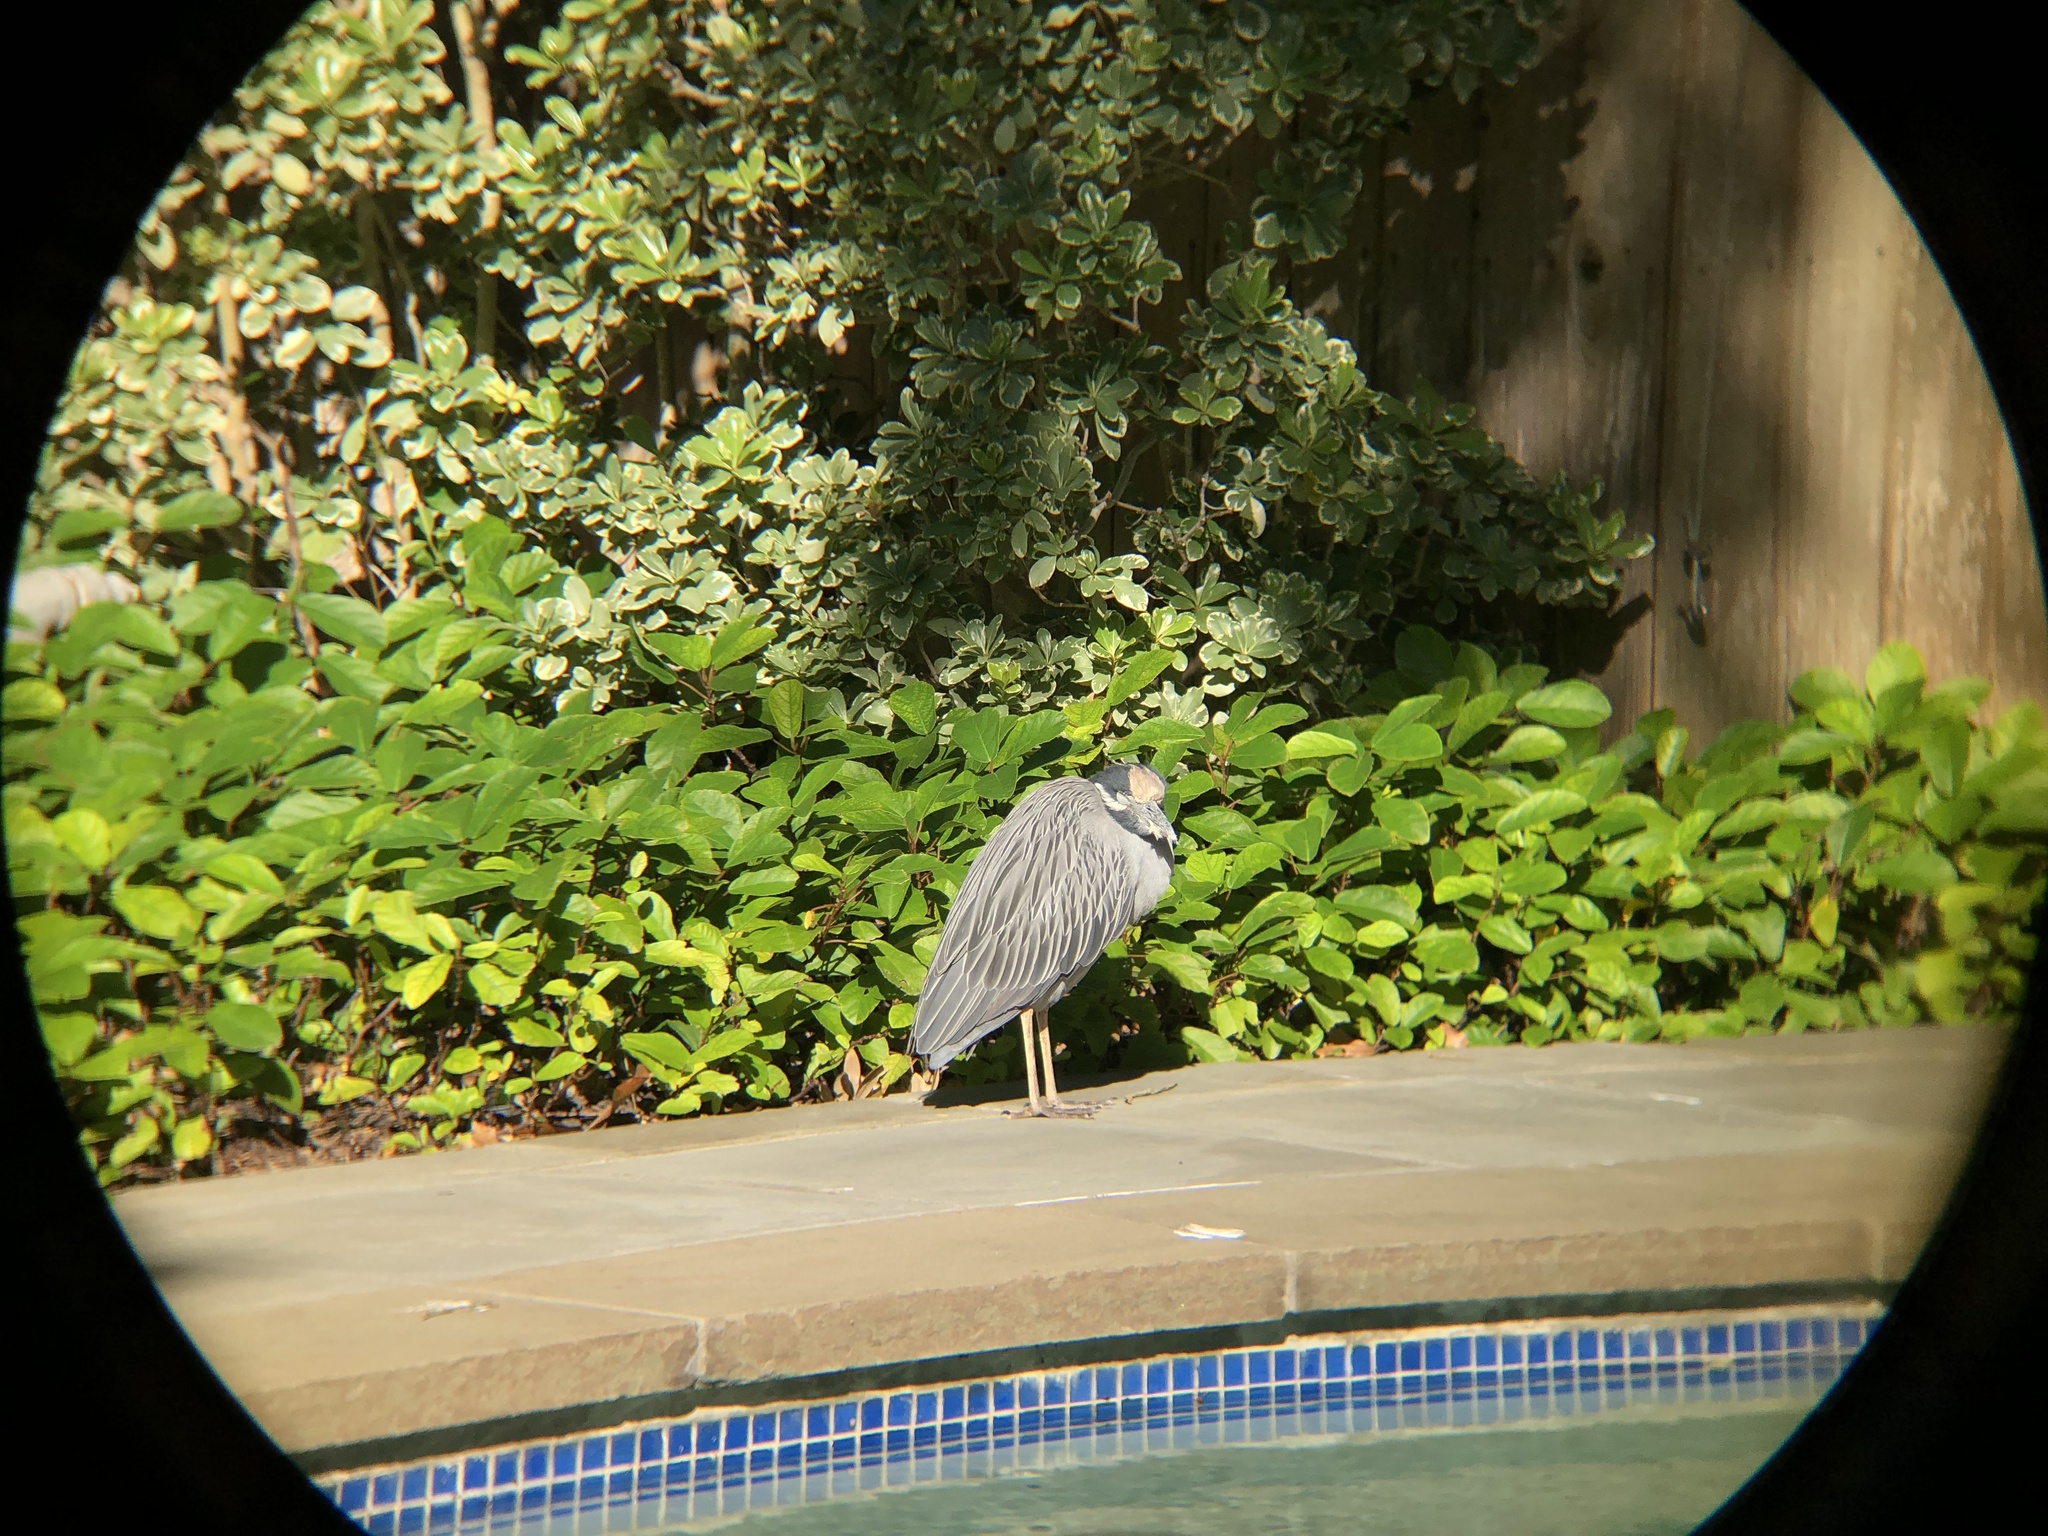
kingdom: Animalia
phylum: Chordata
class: Aves
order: Pelecaniformes
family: Ardeidae
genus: Nyctanassa
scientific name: Nyctanassa violacea
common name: Yellow-crowned night heron
